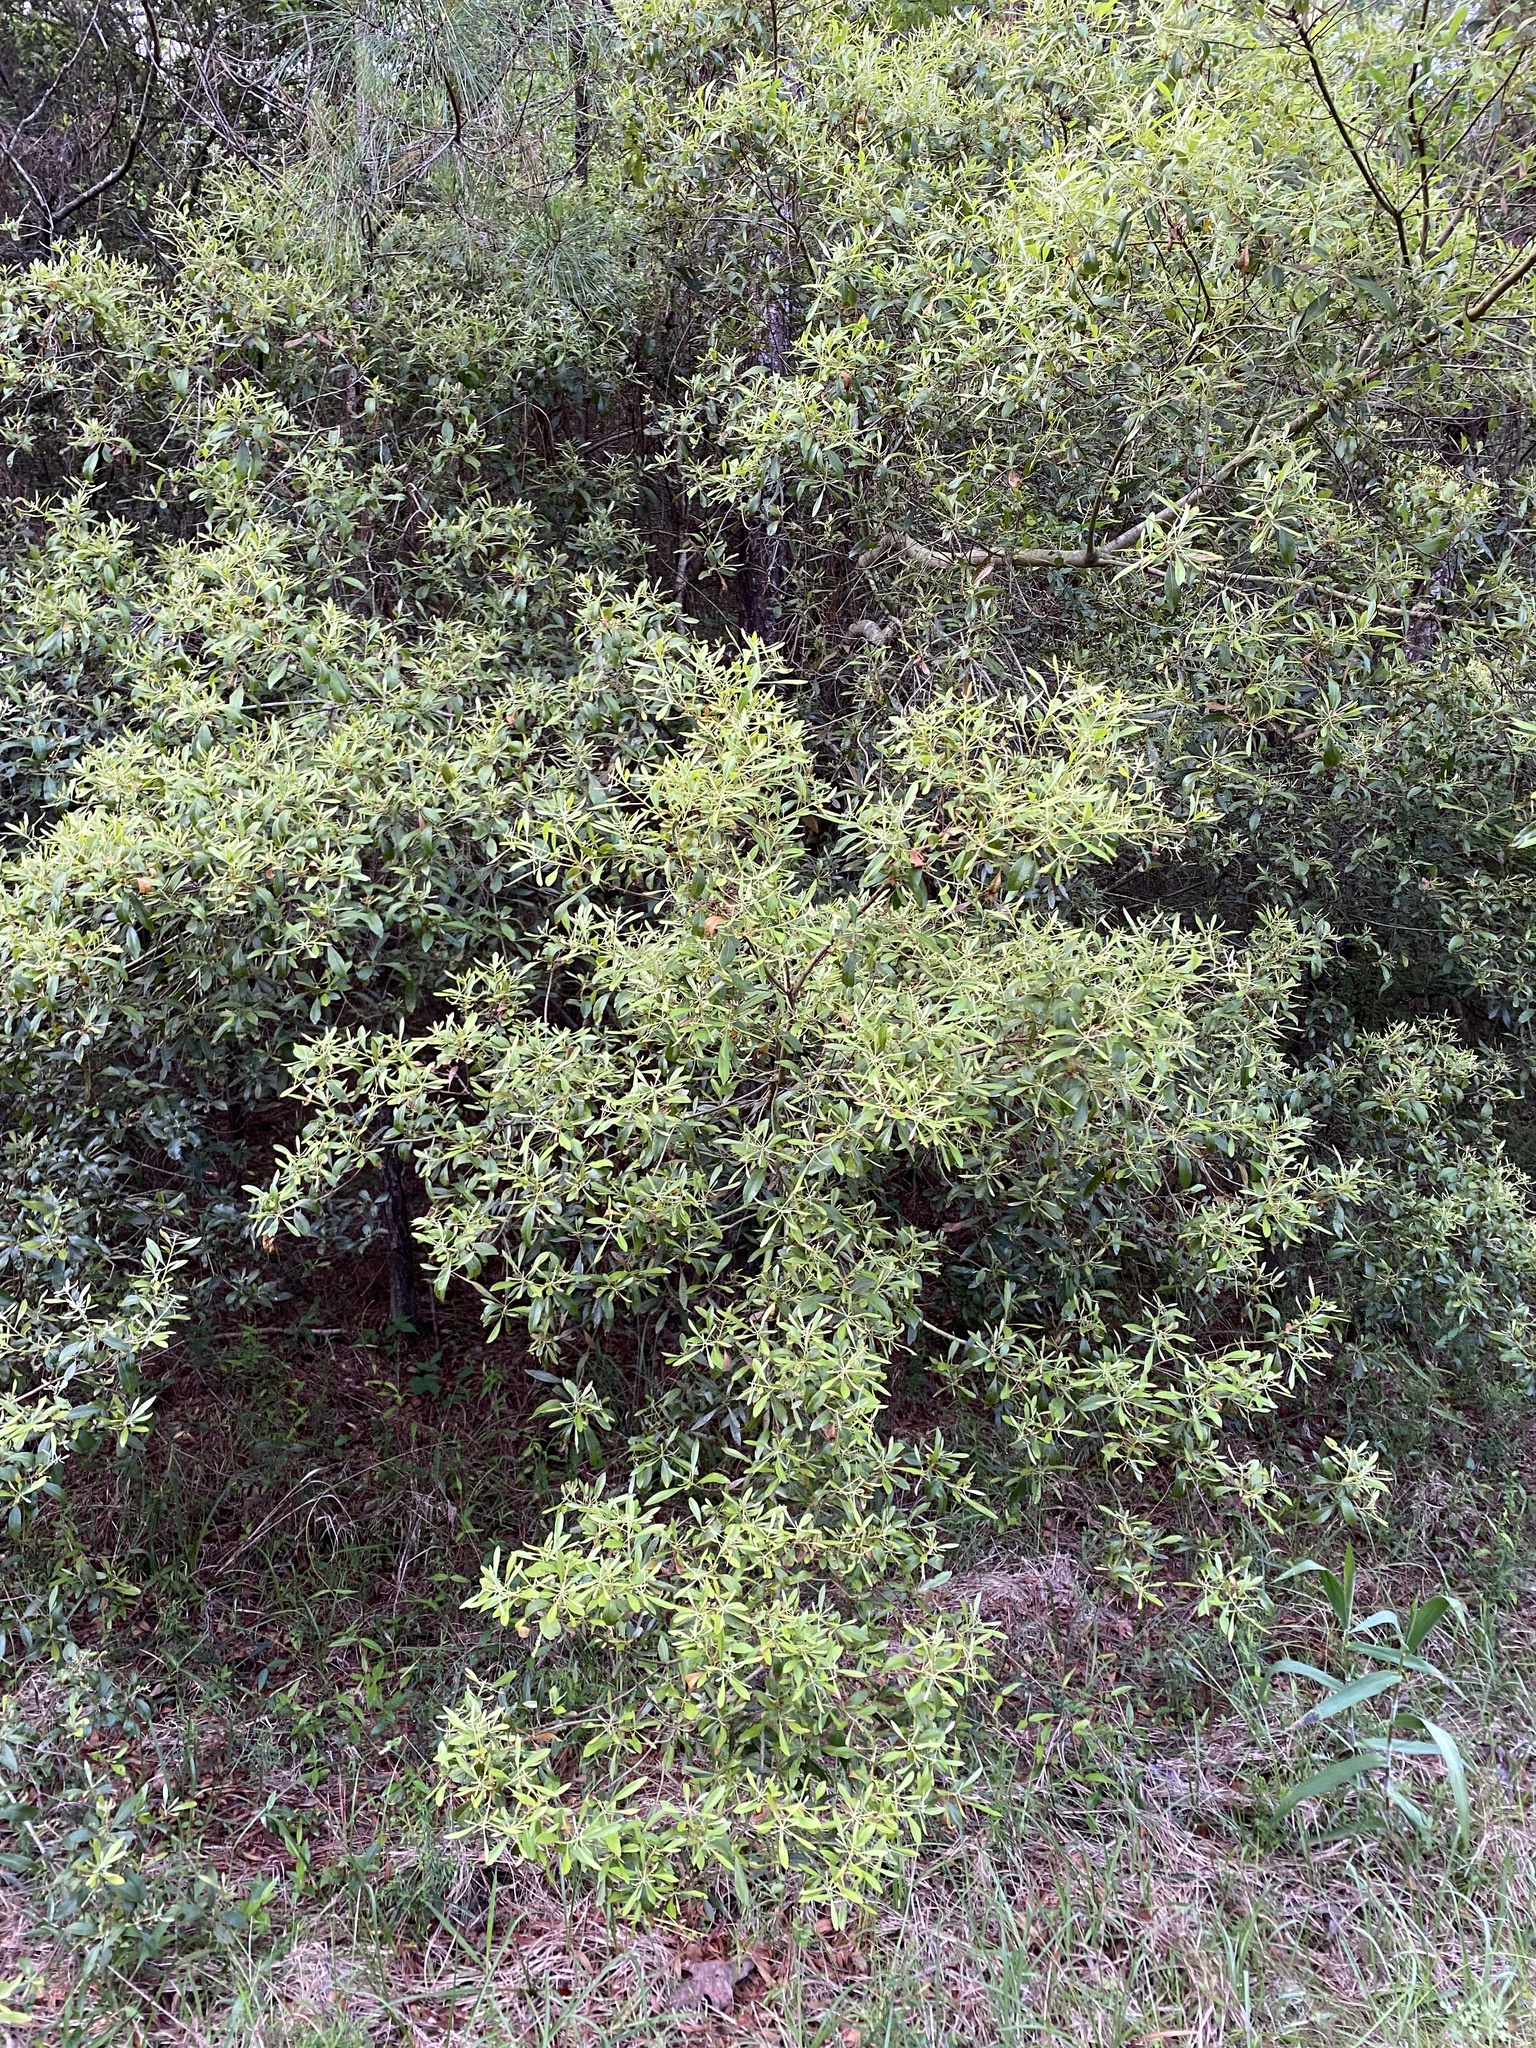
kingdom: Plantae
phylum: Tracheophyta
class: Magnoliopsida
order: Fagales
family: Myricaceae
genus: Morella
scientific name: Morella cerifera
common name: Wax myrtle
